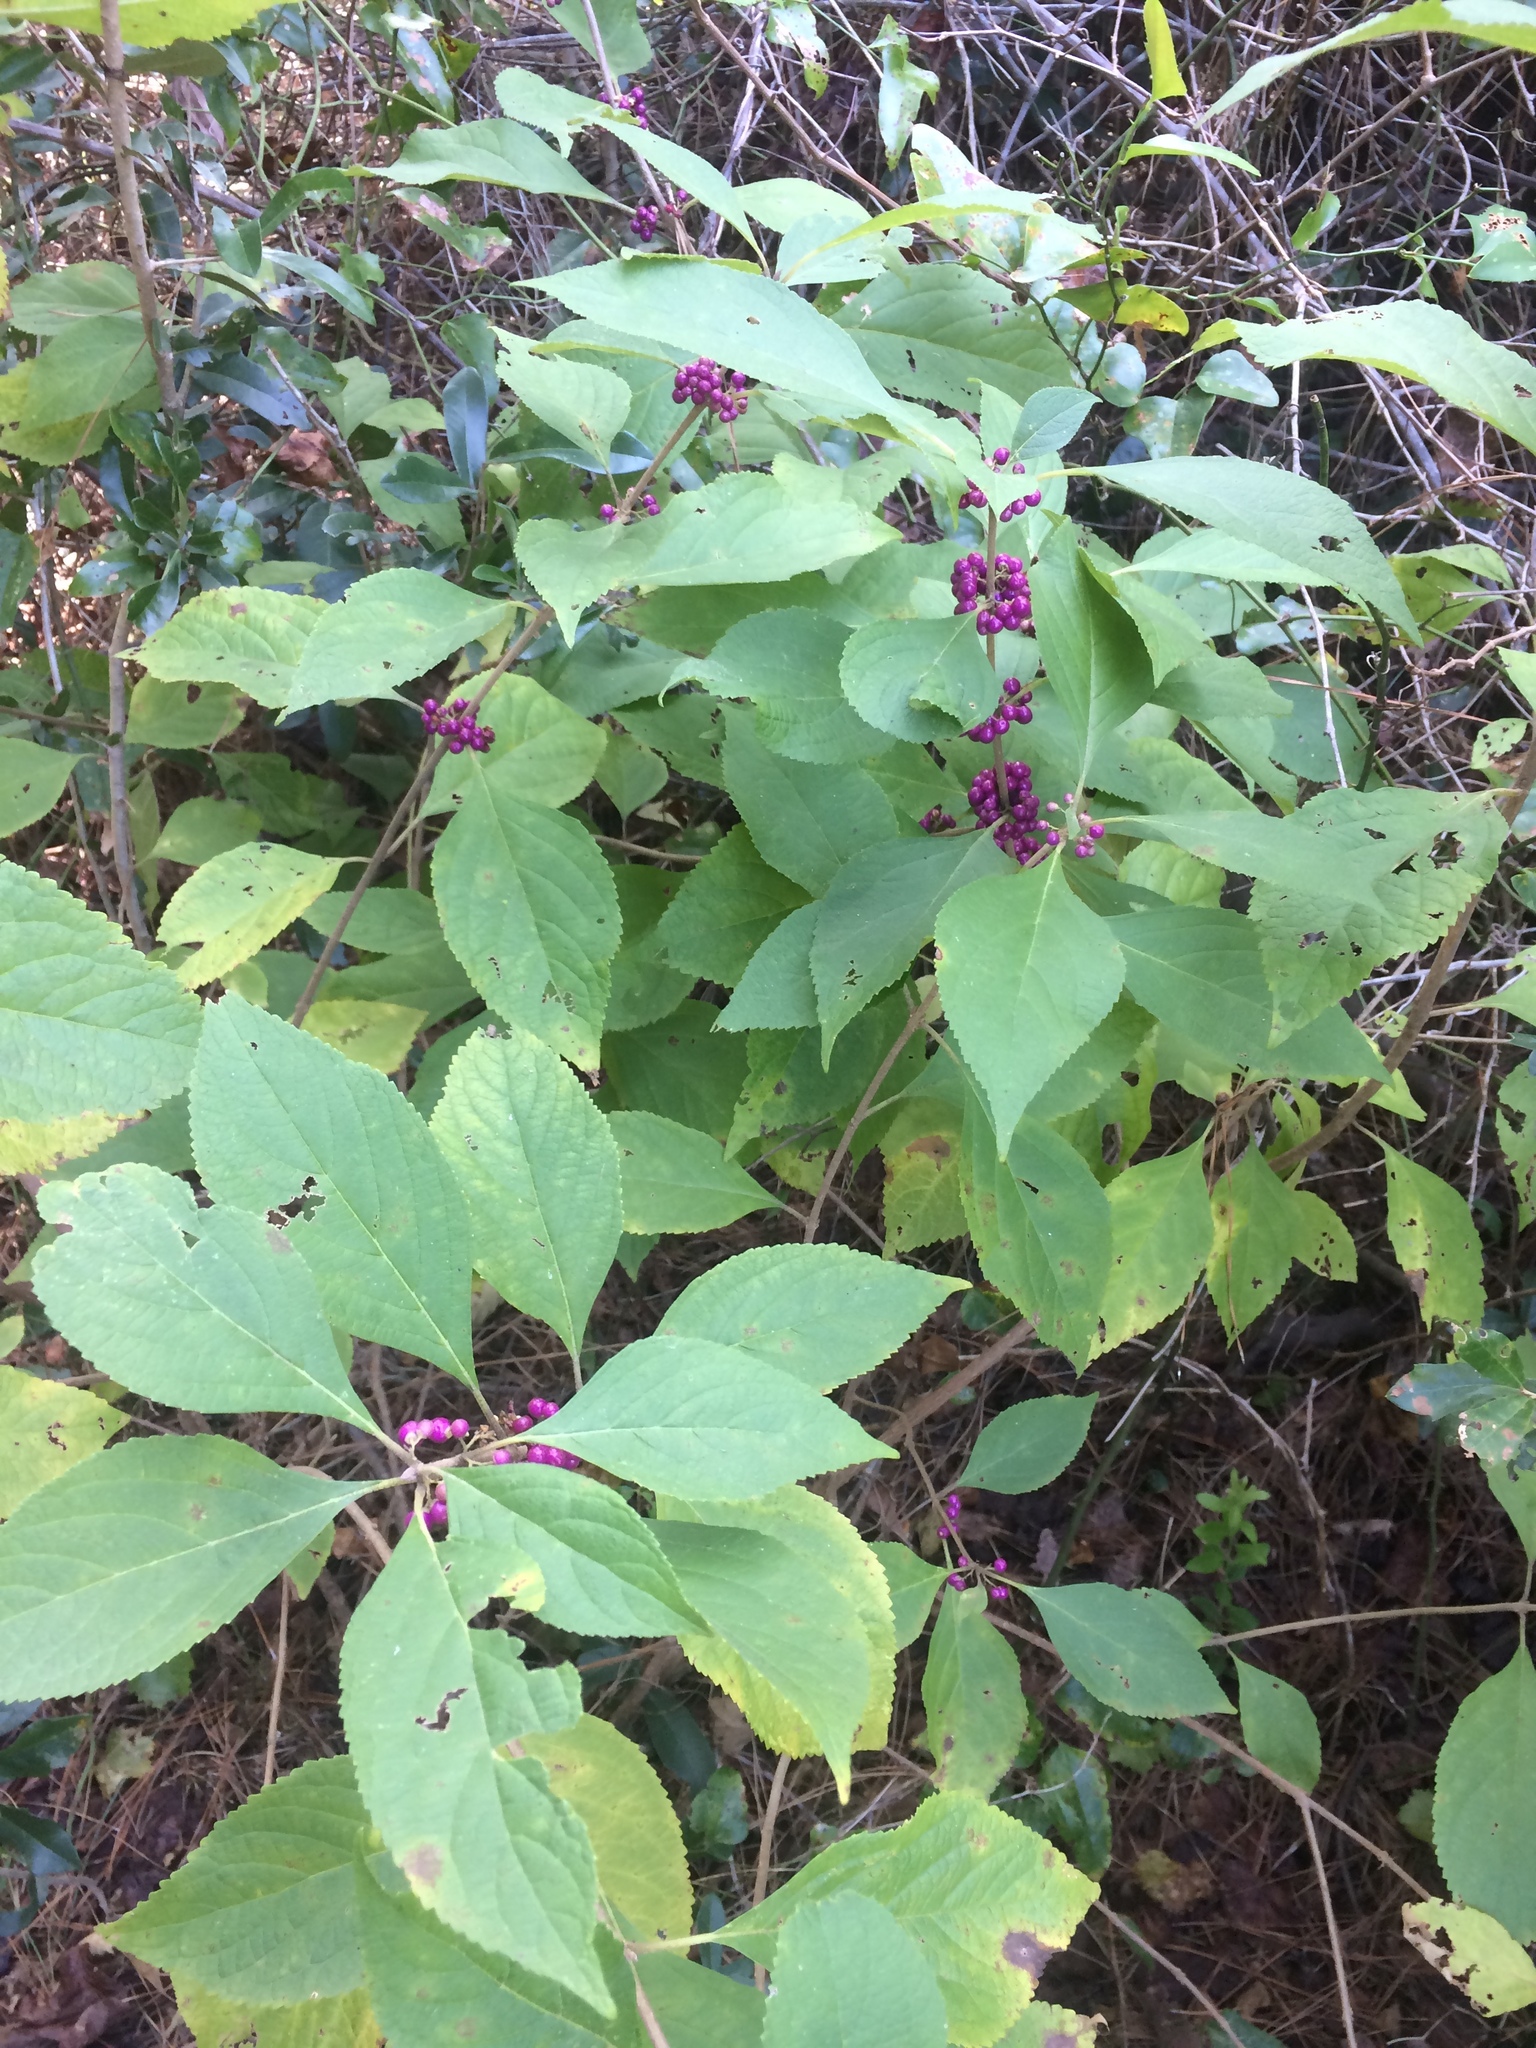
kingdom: Plantae
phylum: Tracheophyta
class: Magnoliopsida
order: Lamiales
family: Lamiaceae
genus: Callicarpa
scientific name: Callicarpa americana
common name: American beautyberry
